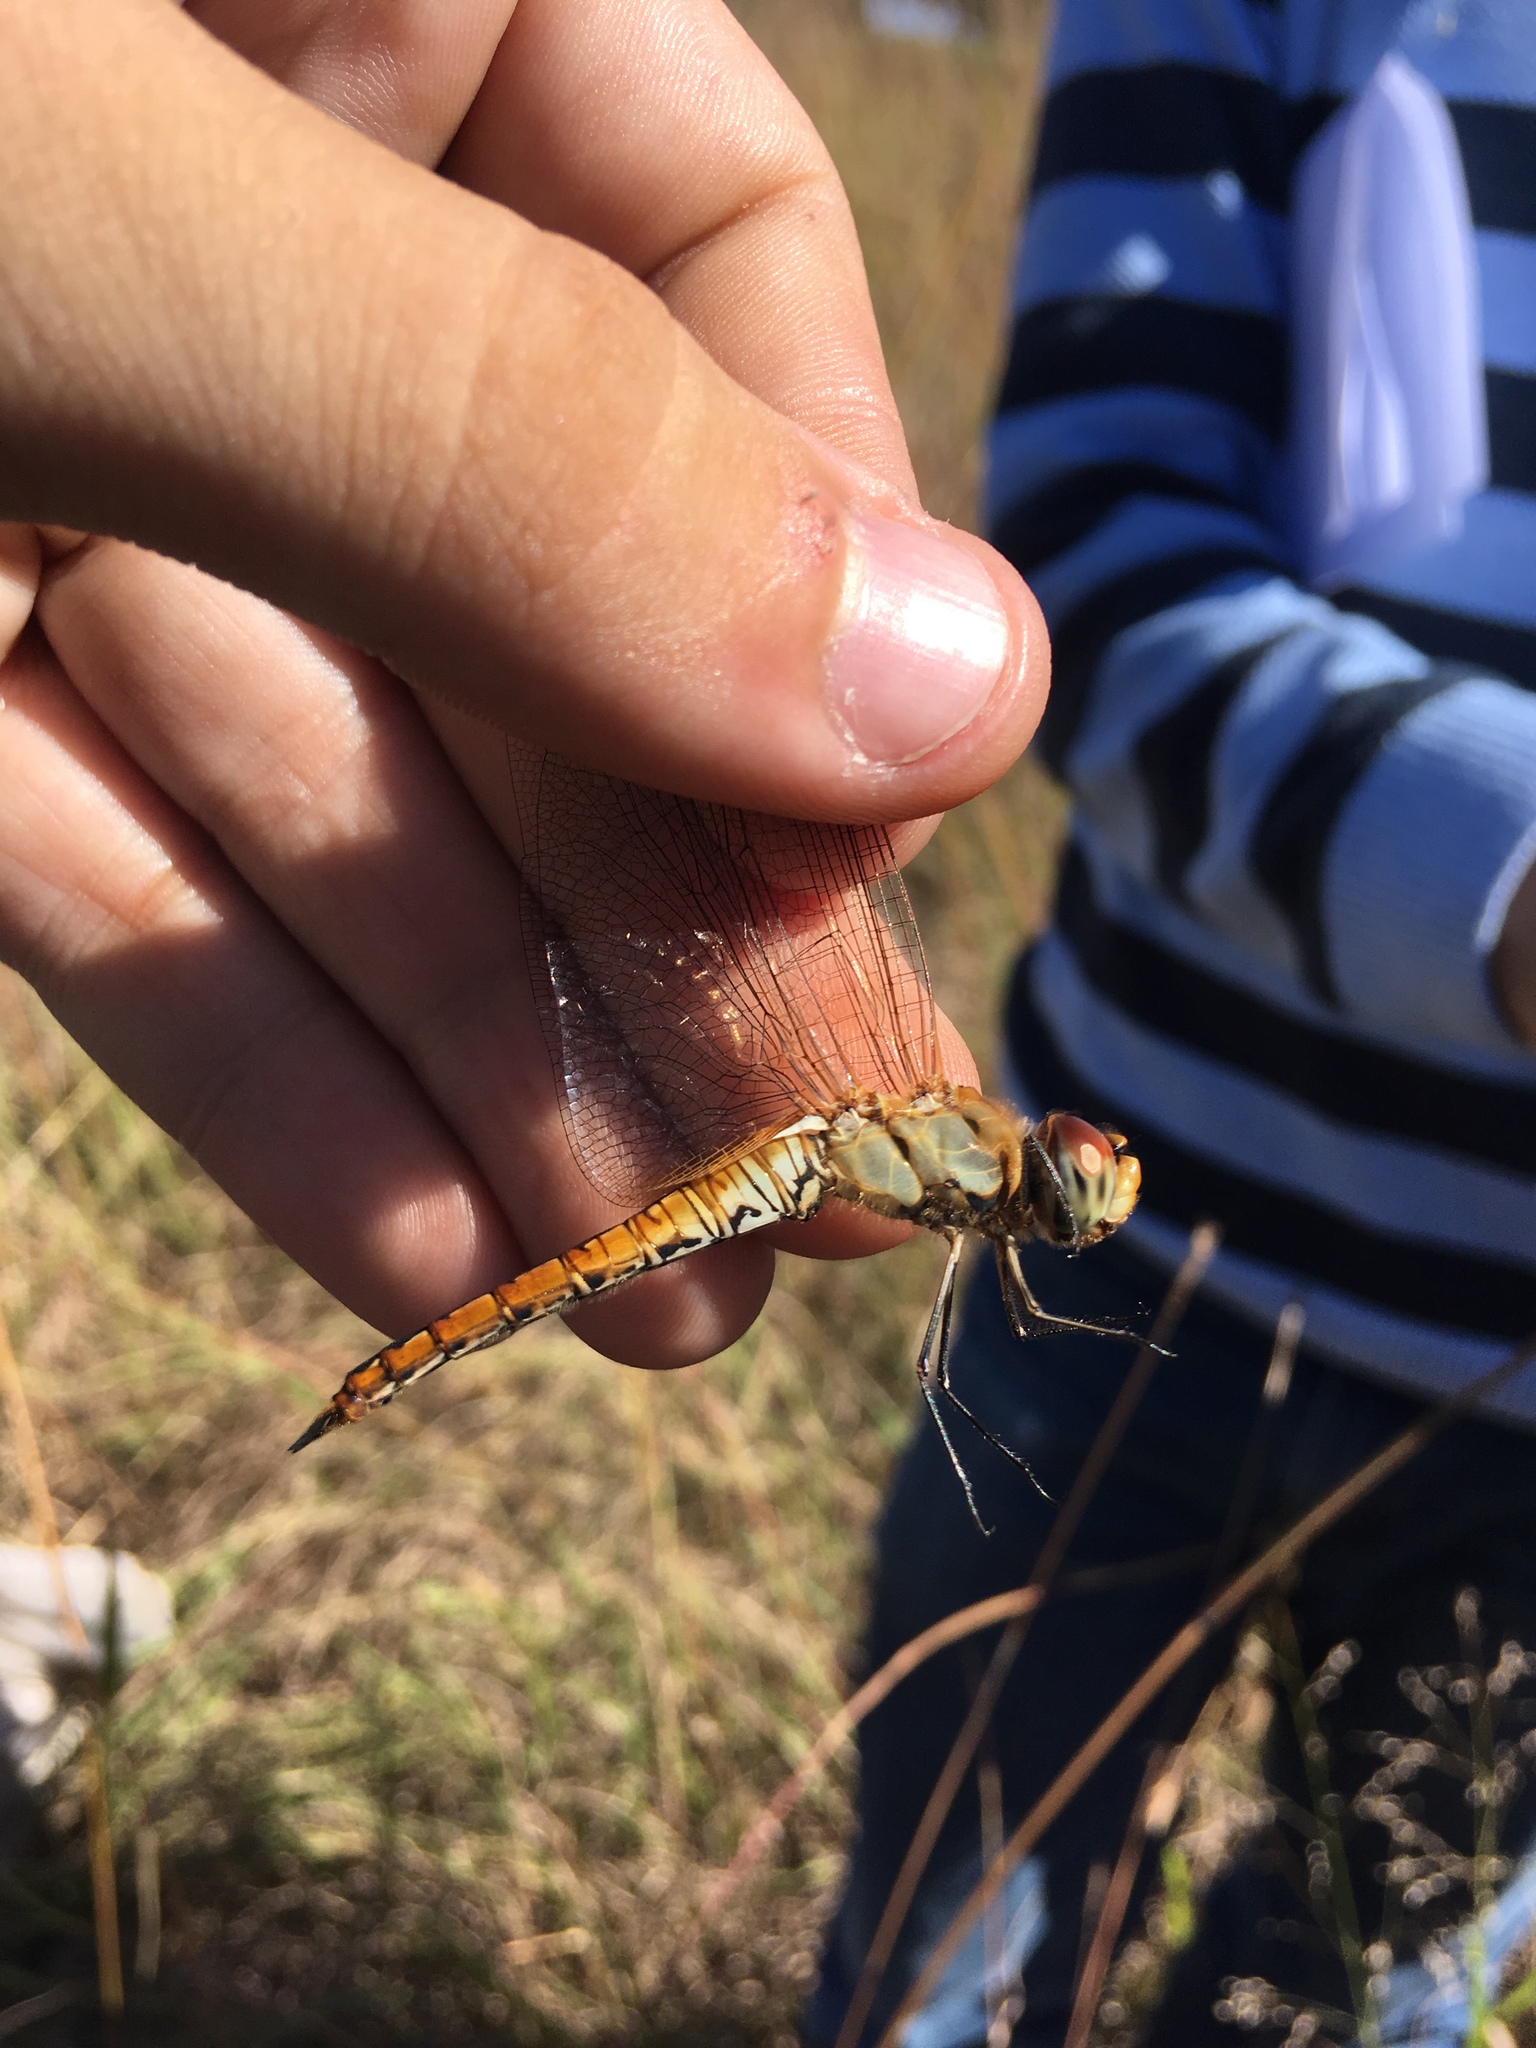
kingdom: Animalia
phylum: Arthropoda
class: Insecta
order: Odonata
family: Libellulidae
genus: Pantala
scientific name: Pantala flavescens
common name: Wandering glider
